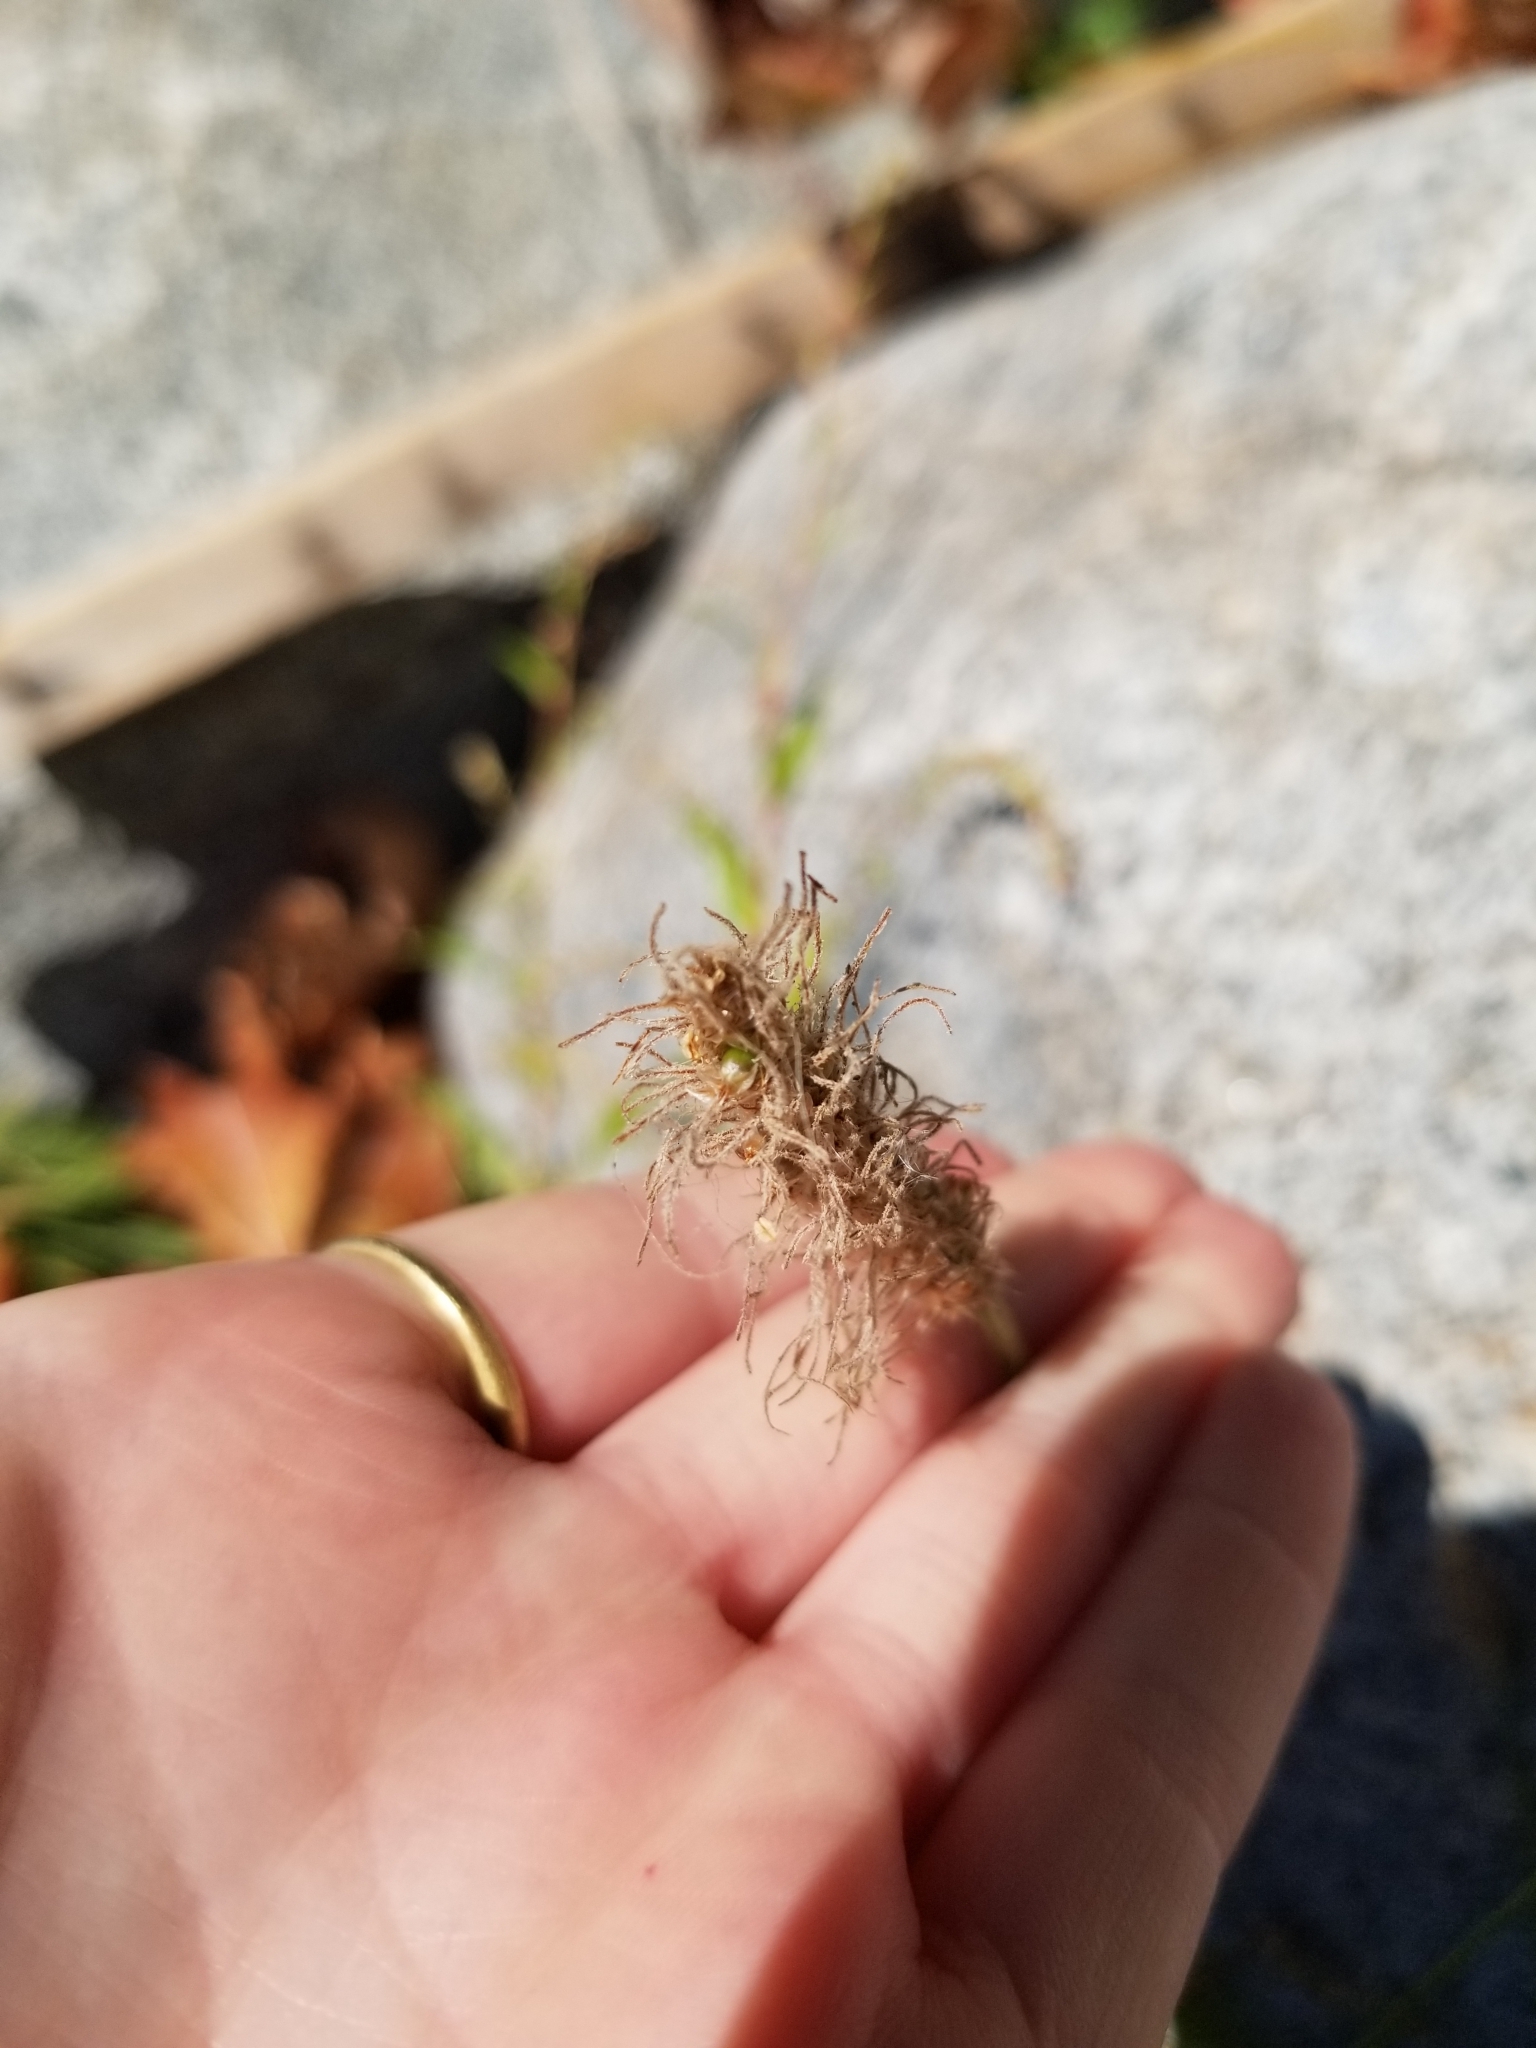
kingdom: Plantae
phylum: Tracheophyta
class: Magnoliopsida
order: Lamiales
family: Plantaginaceae
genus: Plantago
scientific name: Plantago lanceolata
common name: Ribwort plantain
